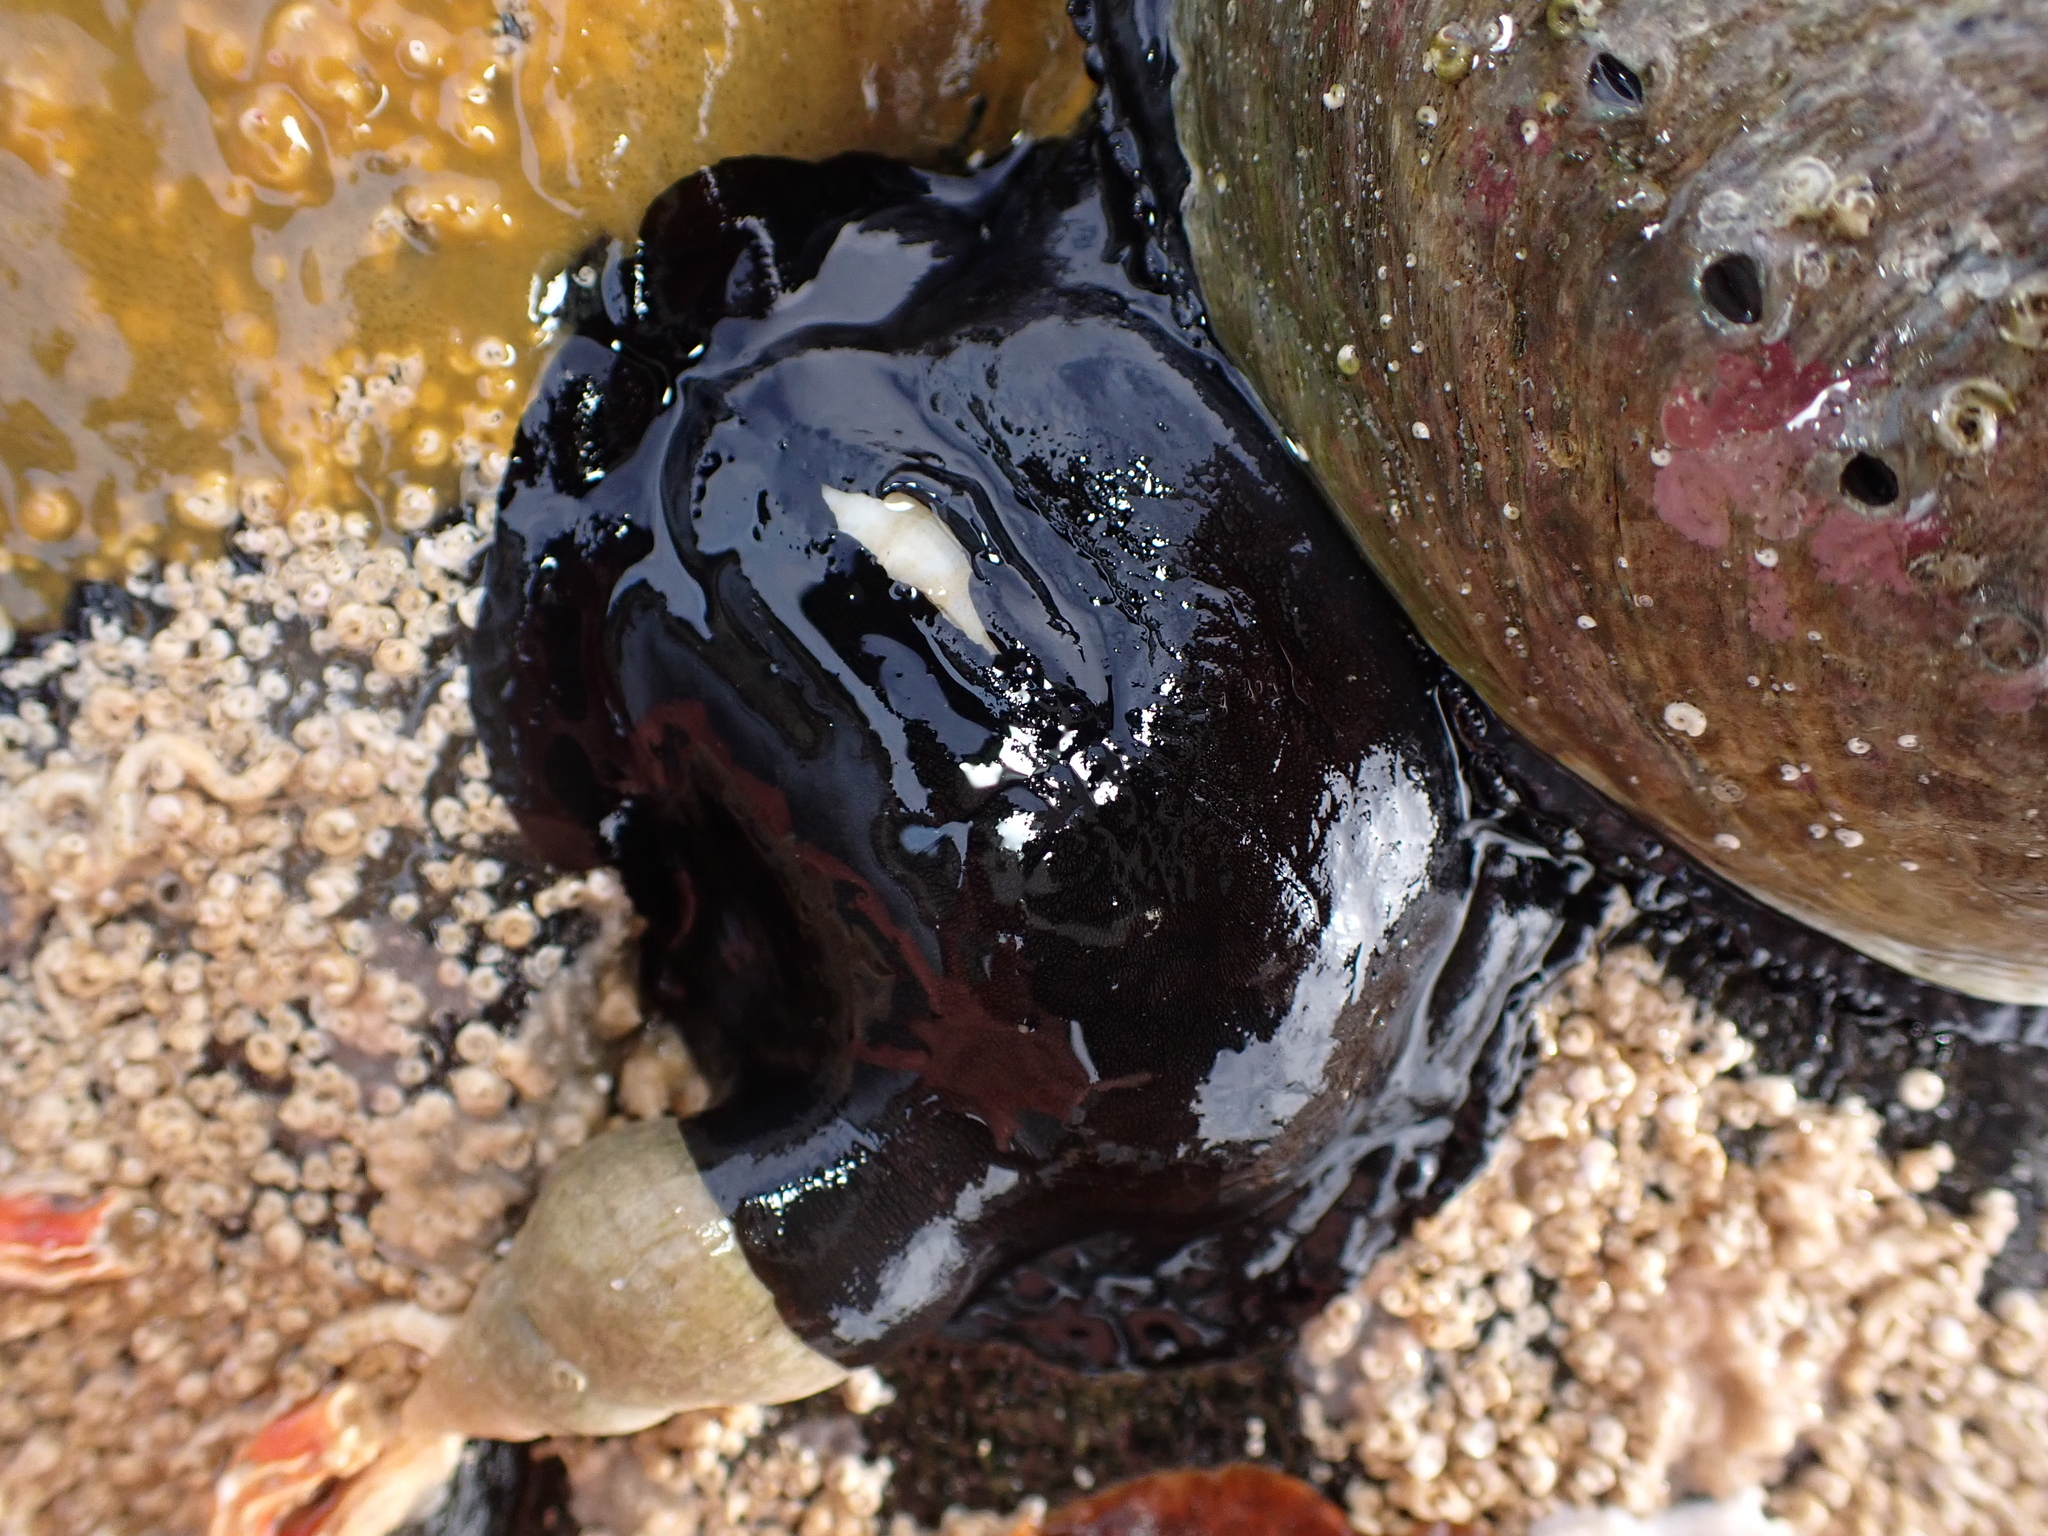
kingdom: Animalia
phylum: Mollusca
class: Gastropoda
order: Lepetellida
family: Fissurellidae
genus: Scutus
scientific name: Scutus breviculus
